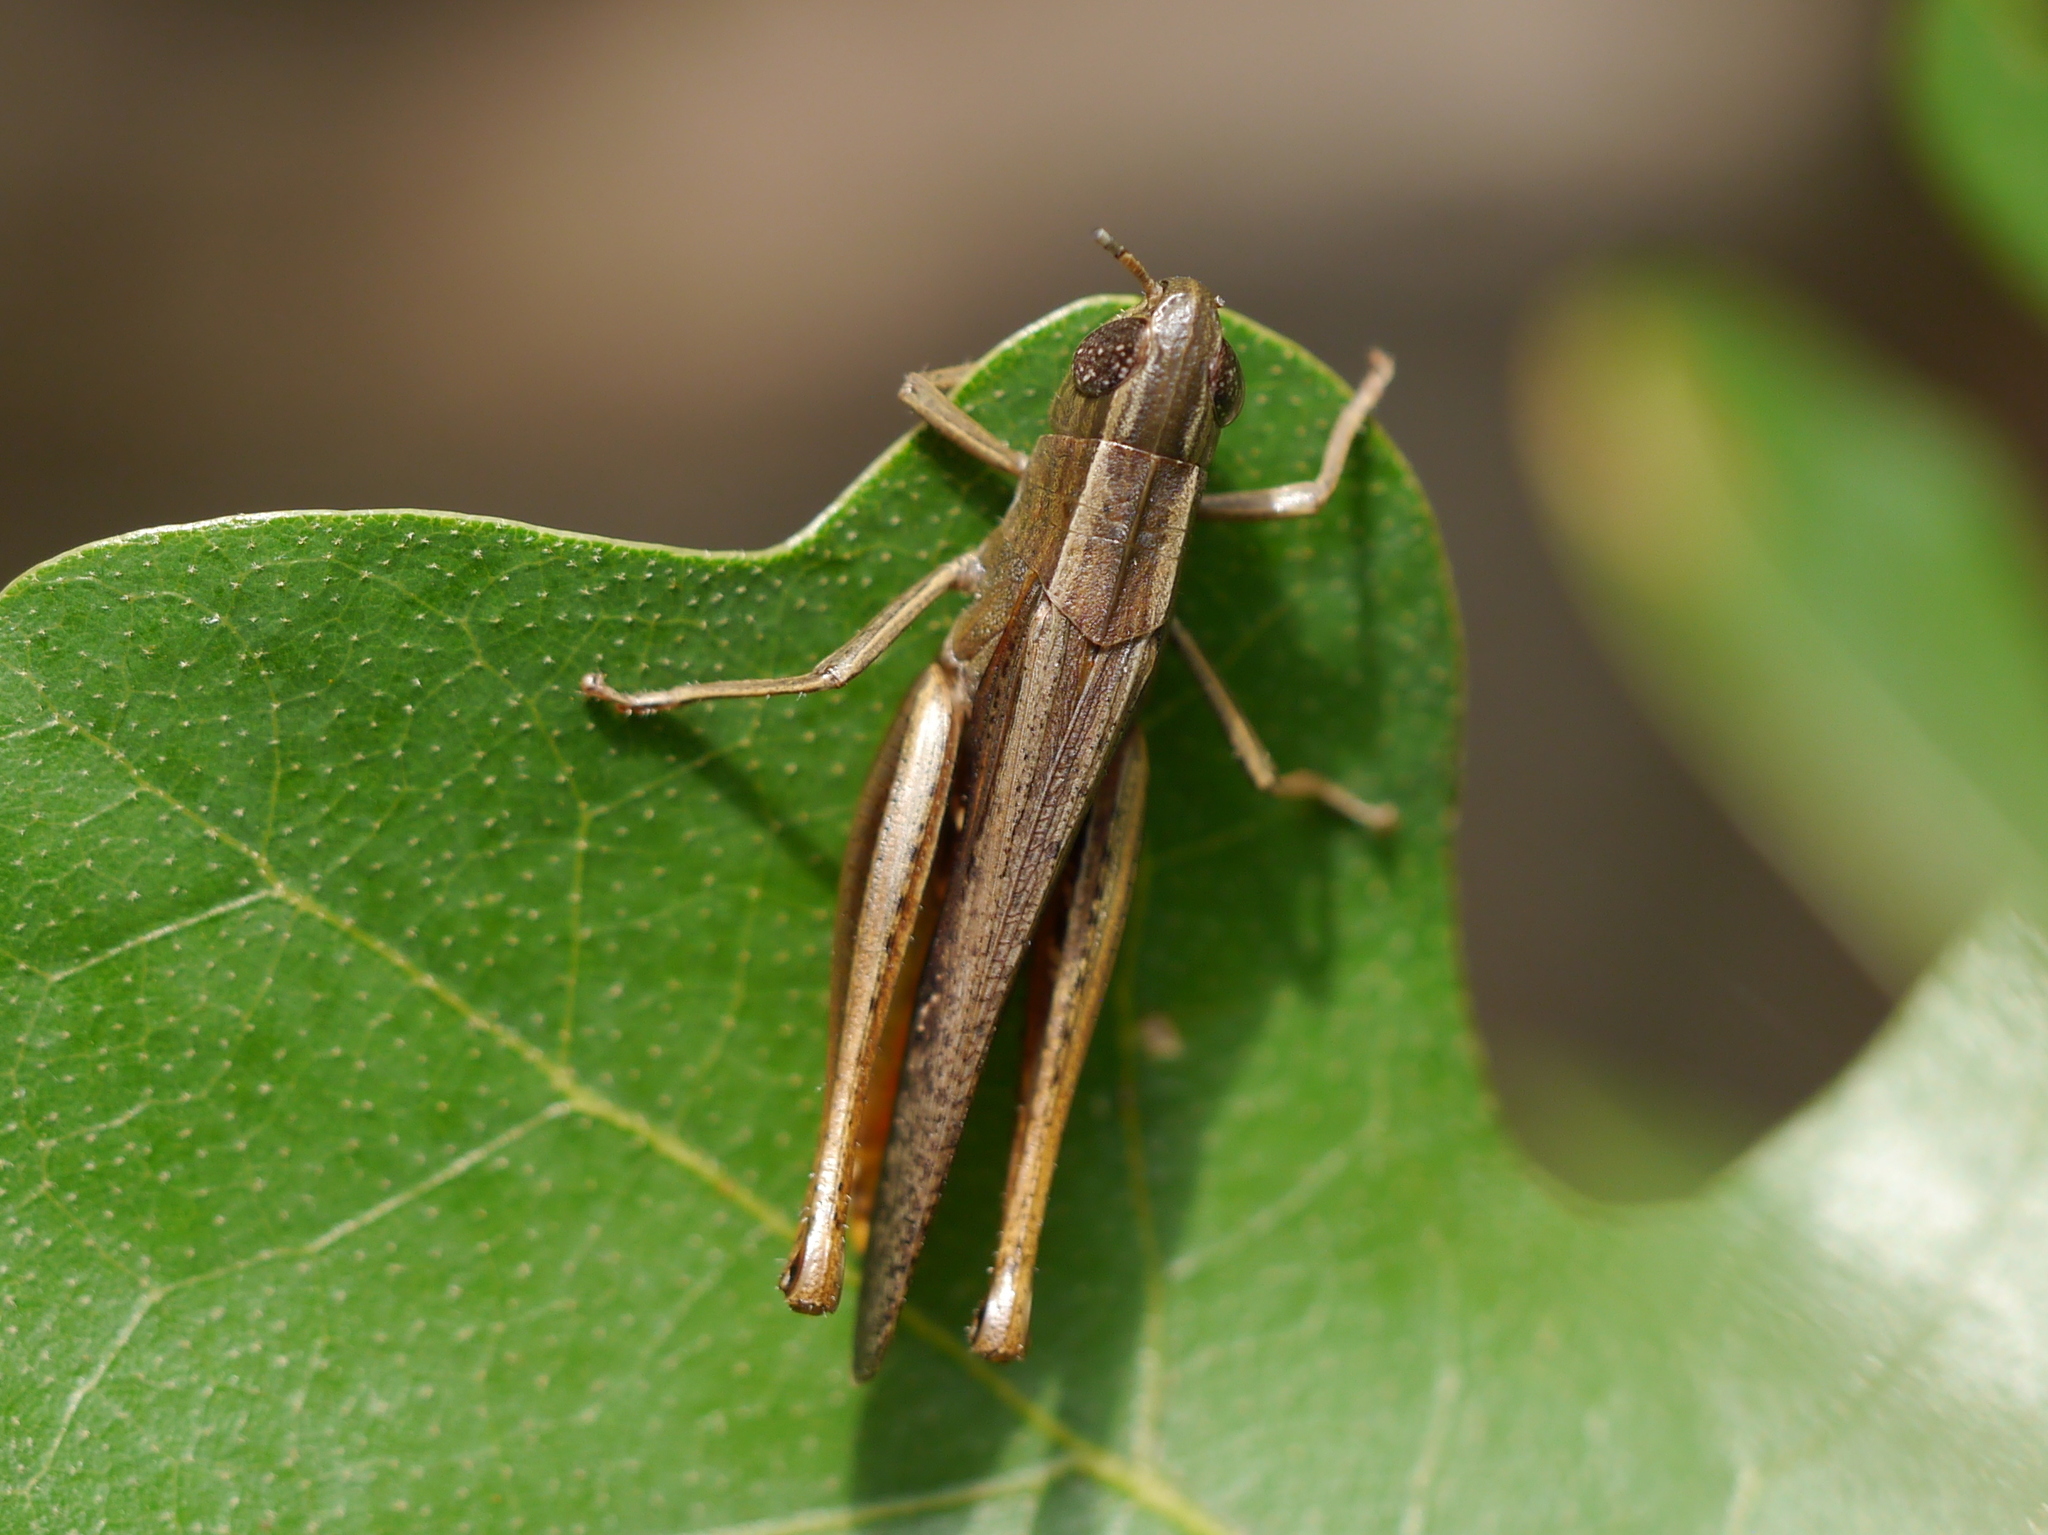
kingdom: Animalia
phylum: Arthropoda
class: Insecta
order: Orthoptera
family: Acrididae
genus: Amblytropidia
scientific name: Amblytropidia mysteca
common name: Brown winter grasshopper
